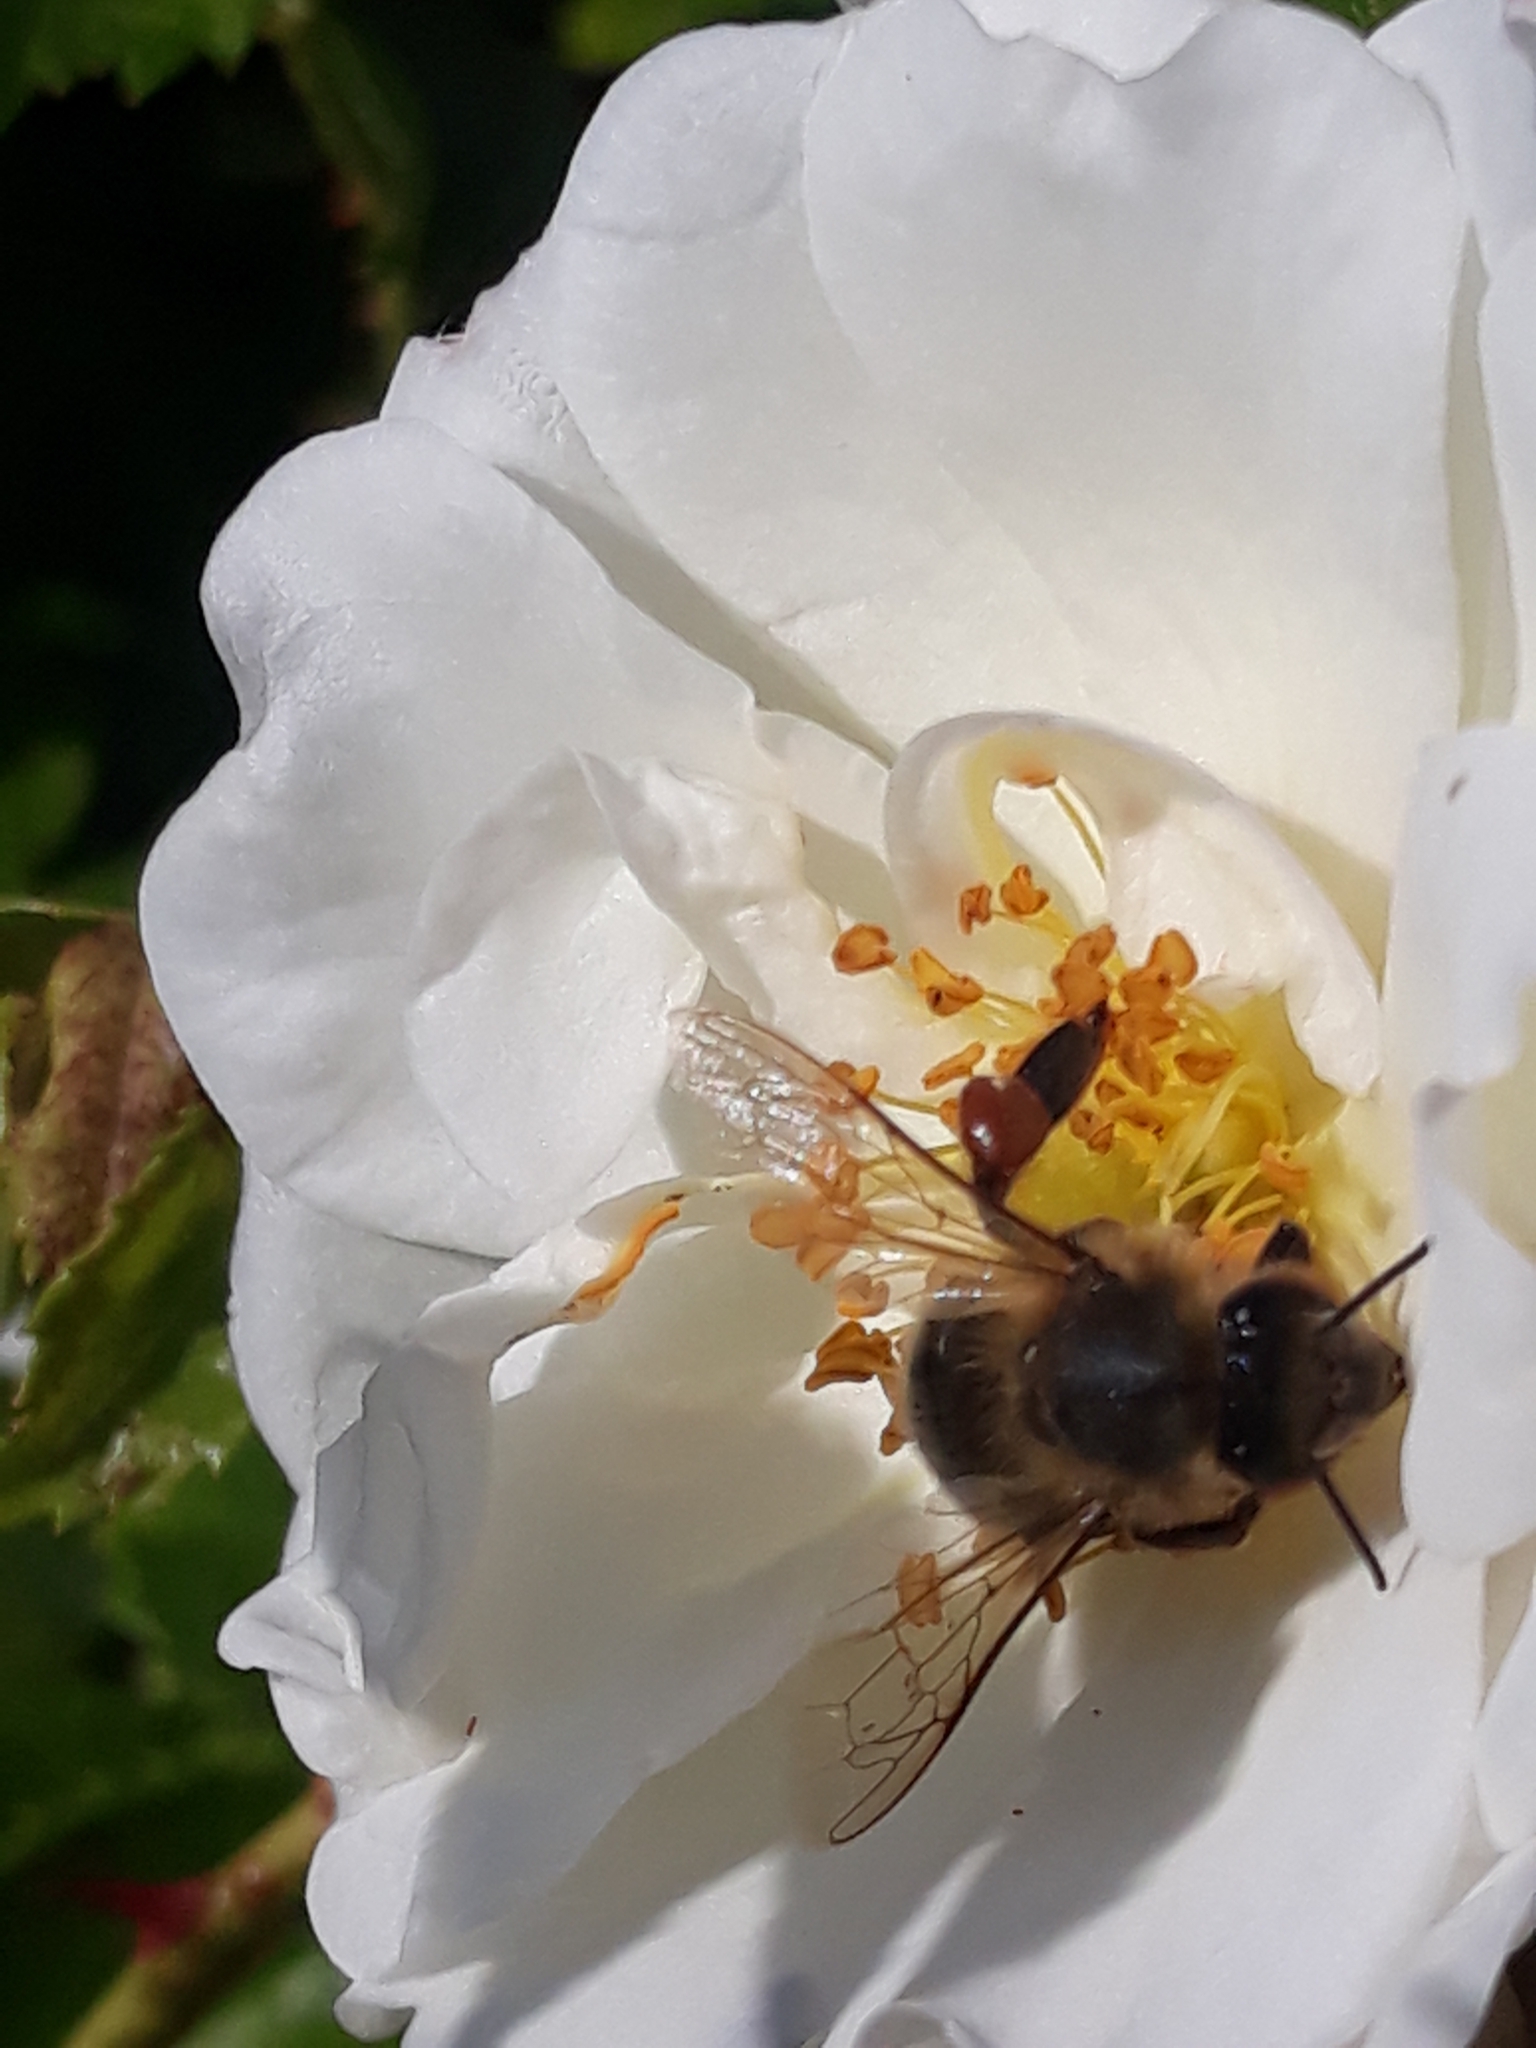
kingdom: Animalia
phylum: Arthropoda
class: Insecta
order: Hymenoptera
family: Apidae
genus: Apis
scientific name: Apis mellifera
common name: Honey bee
